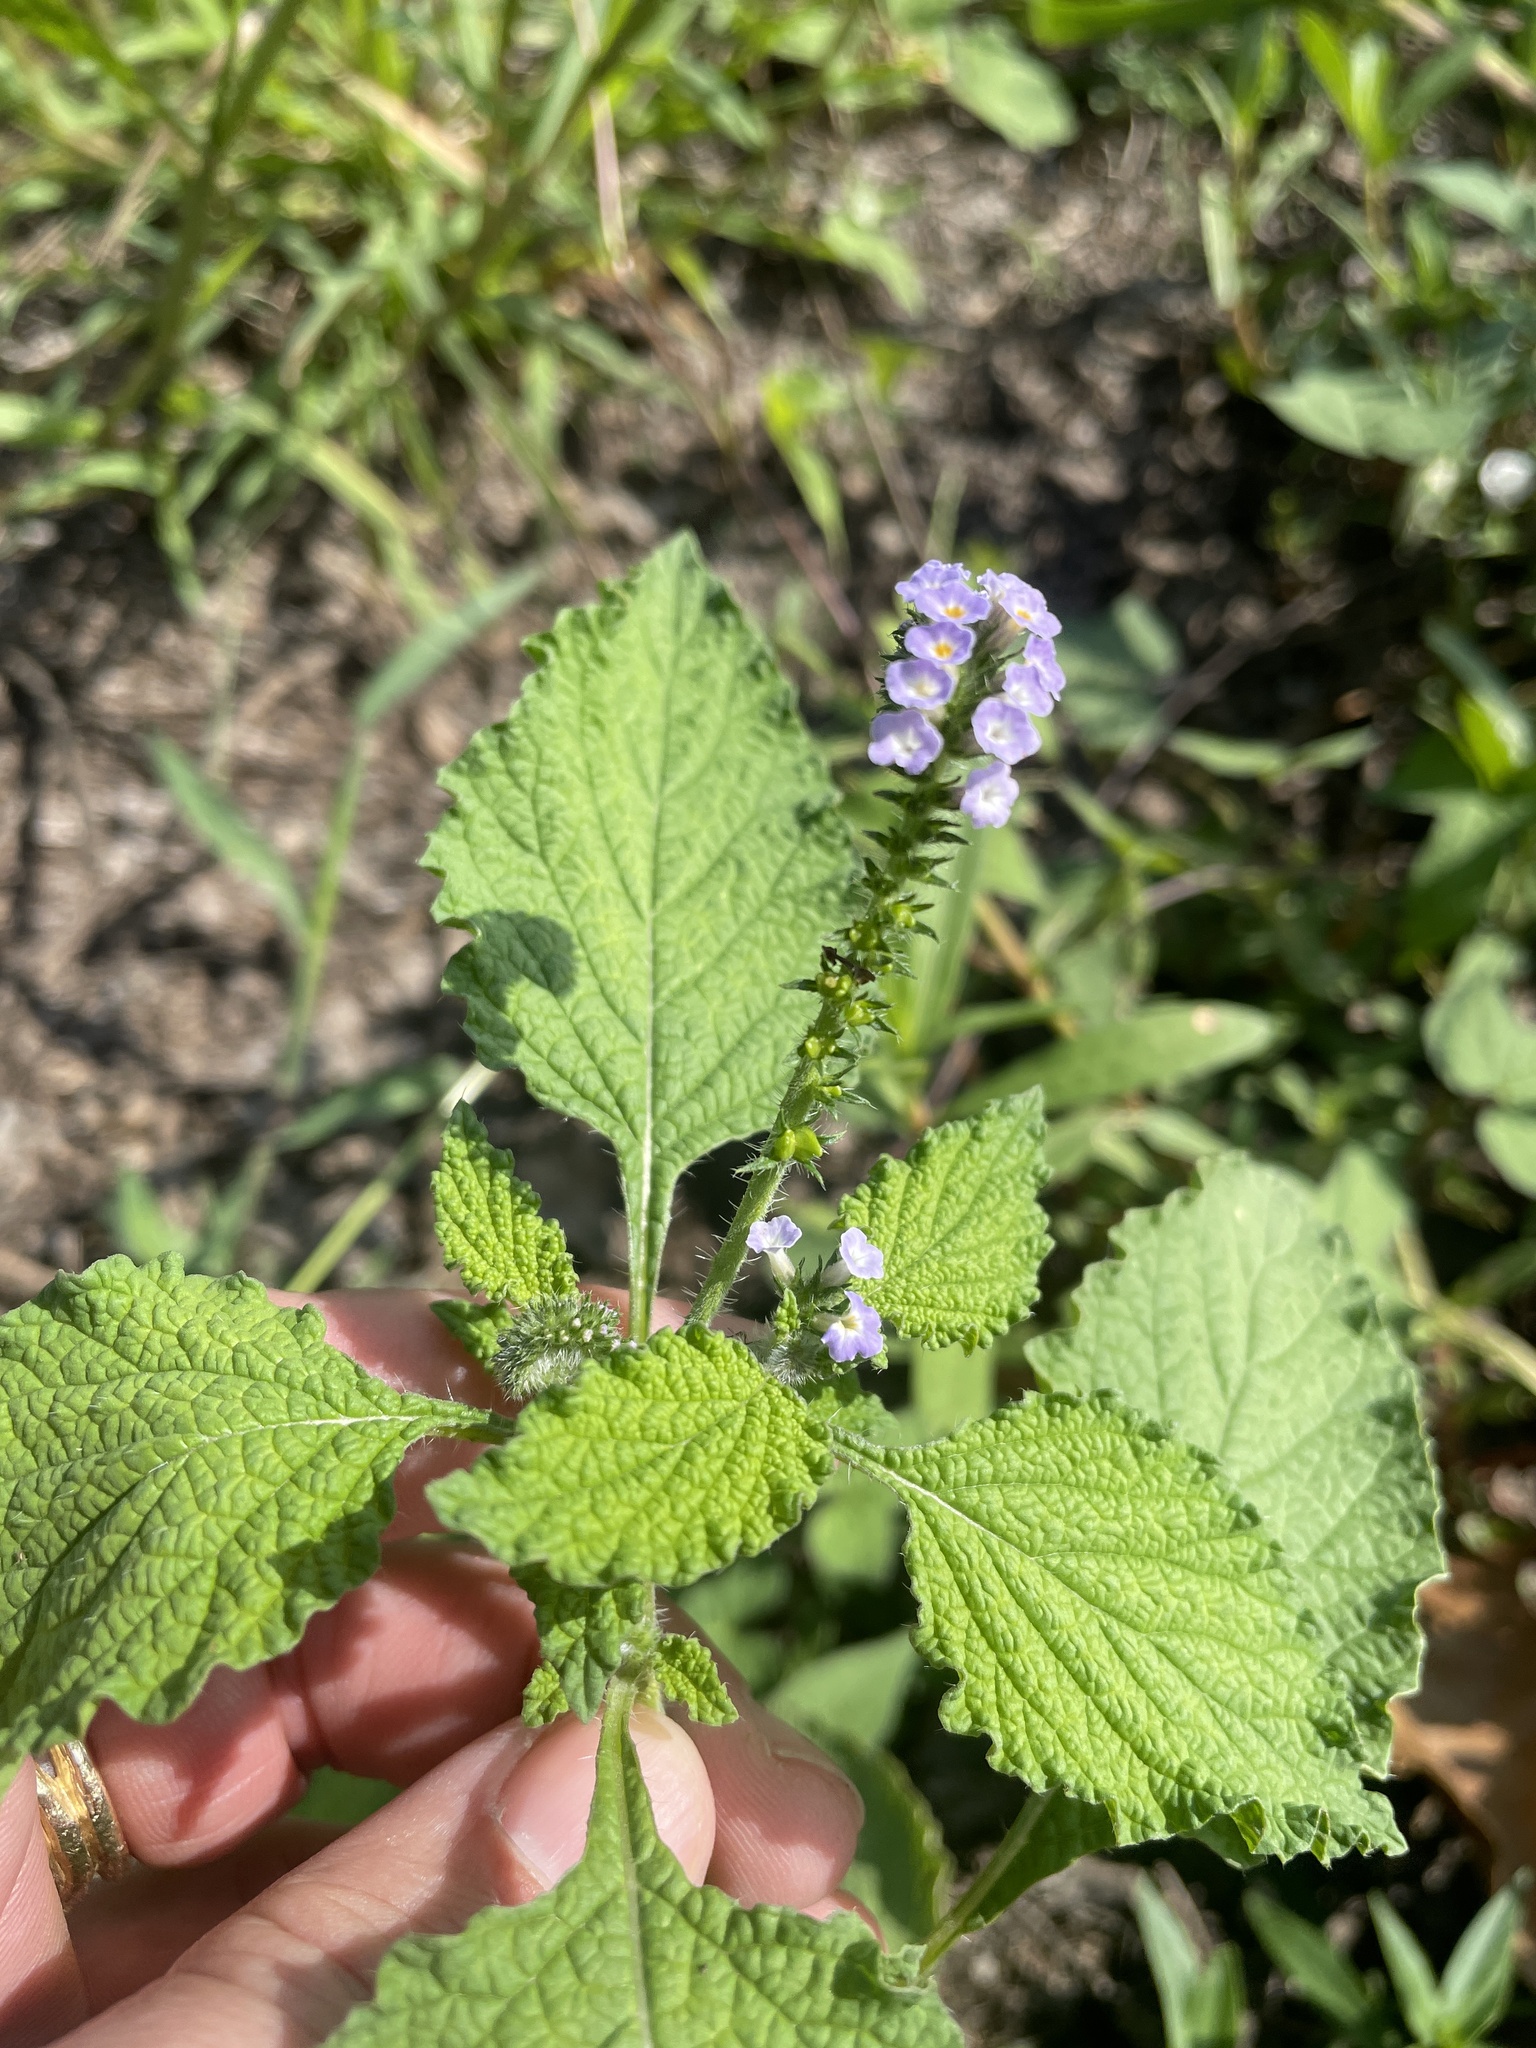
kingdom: Plantae
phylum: Tracheophyta
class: Magnoliopsida
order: Boraginales
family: Heliotropiaceae
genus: Heliotropium
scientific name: Heliotropium indicum
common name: Indian heliotrope
